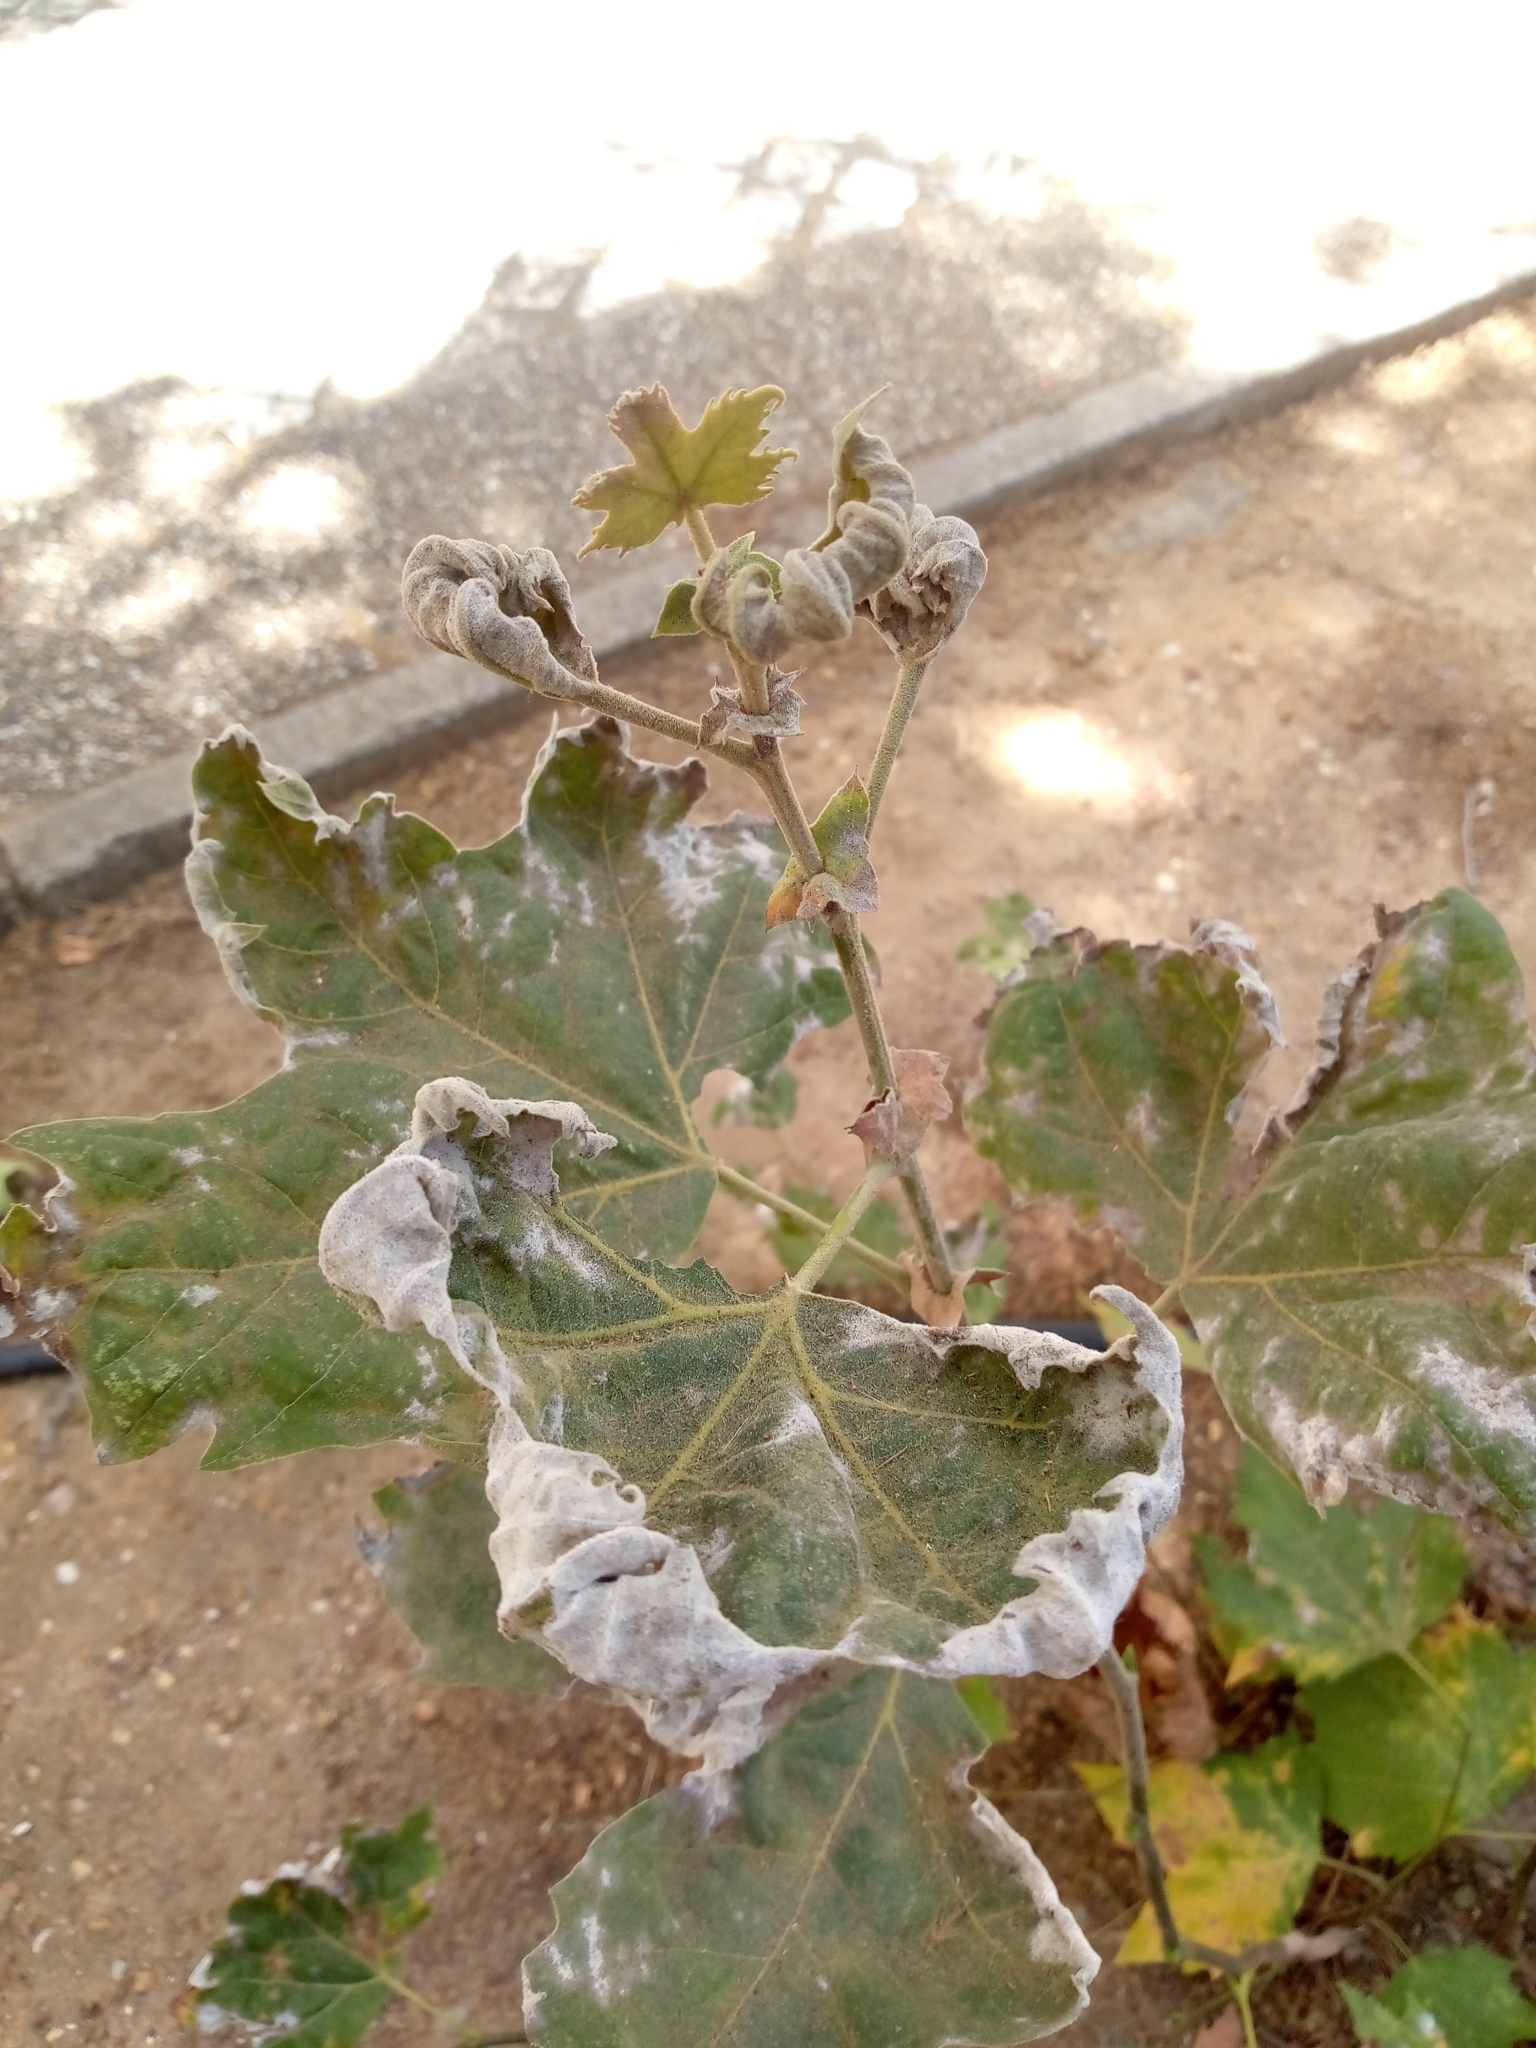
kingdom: Fungi
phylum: Ascomycota
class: Leotiomycetes
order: Helotiales
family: Erysiphaceae
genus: Erysiphe
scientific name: Erysiphe platani
